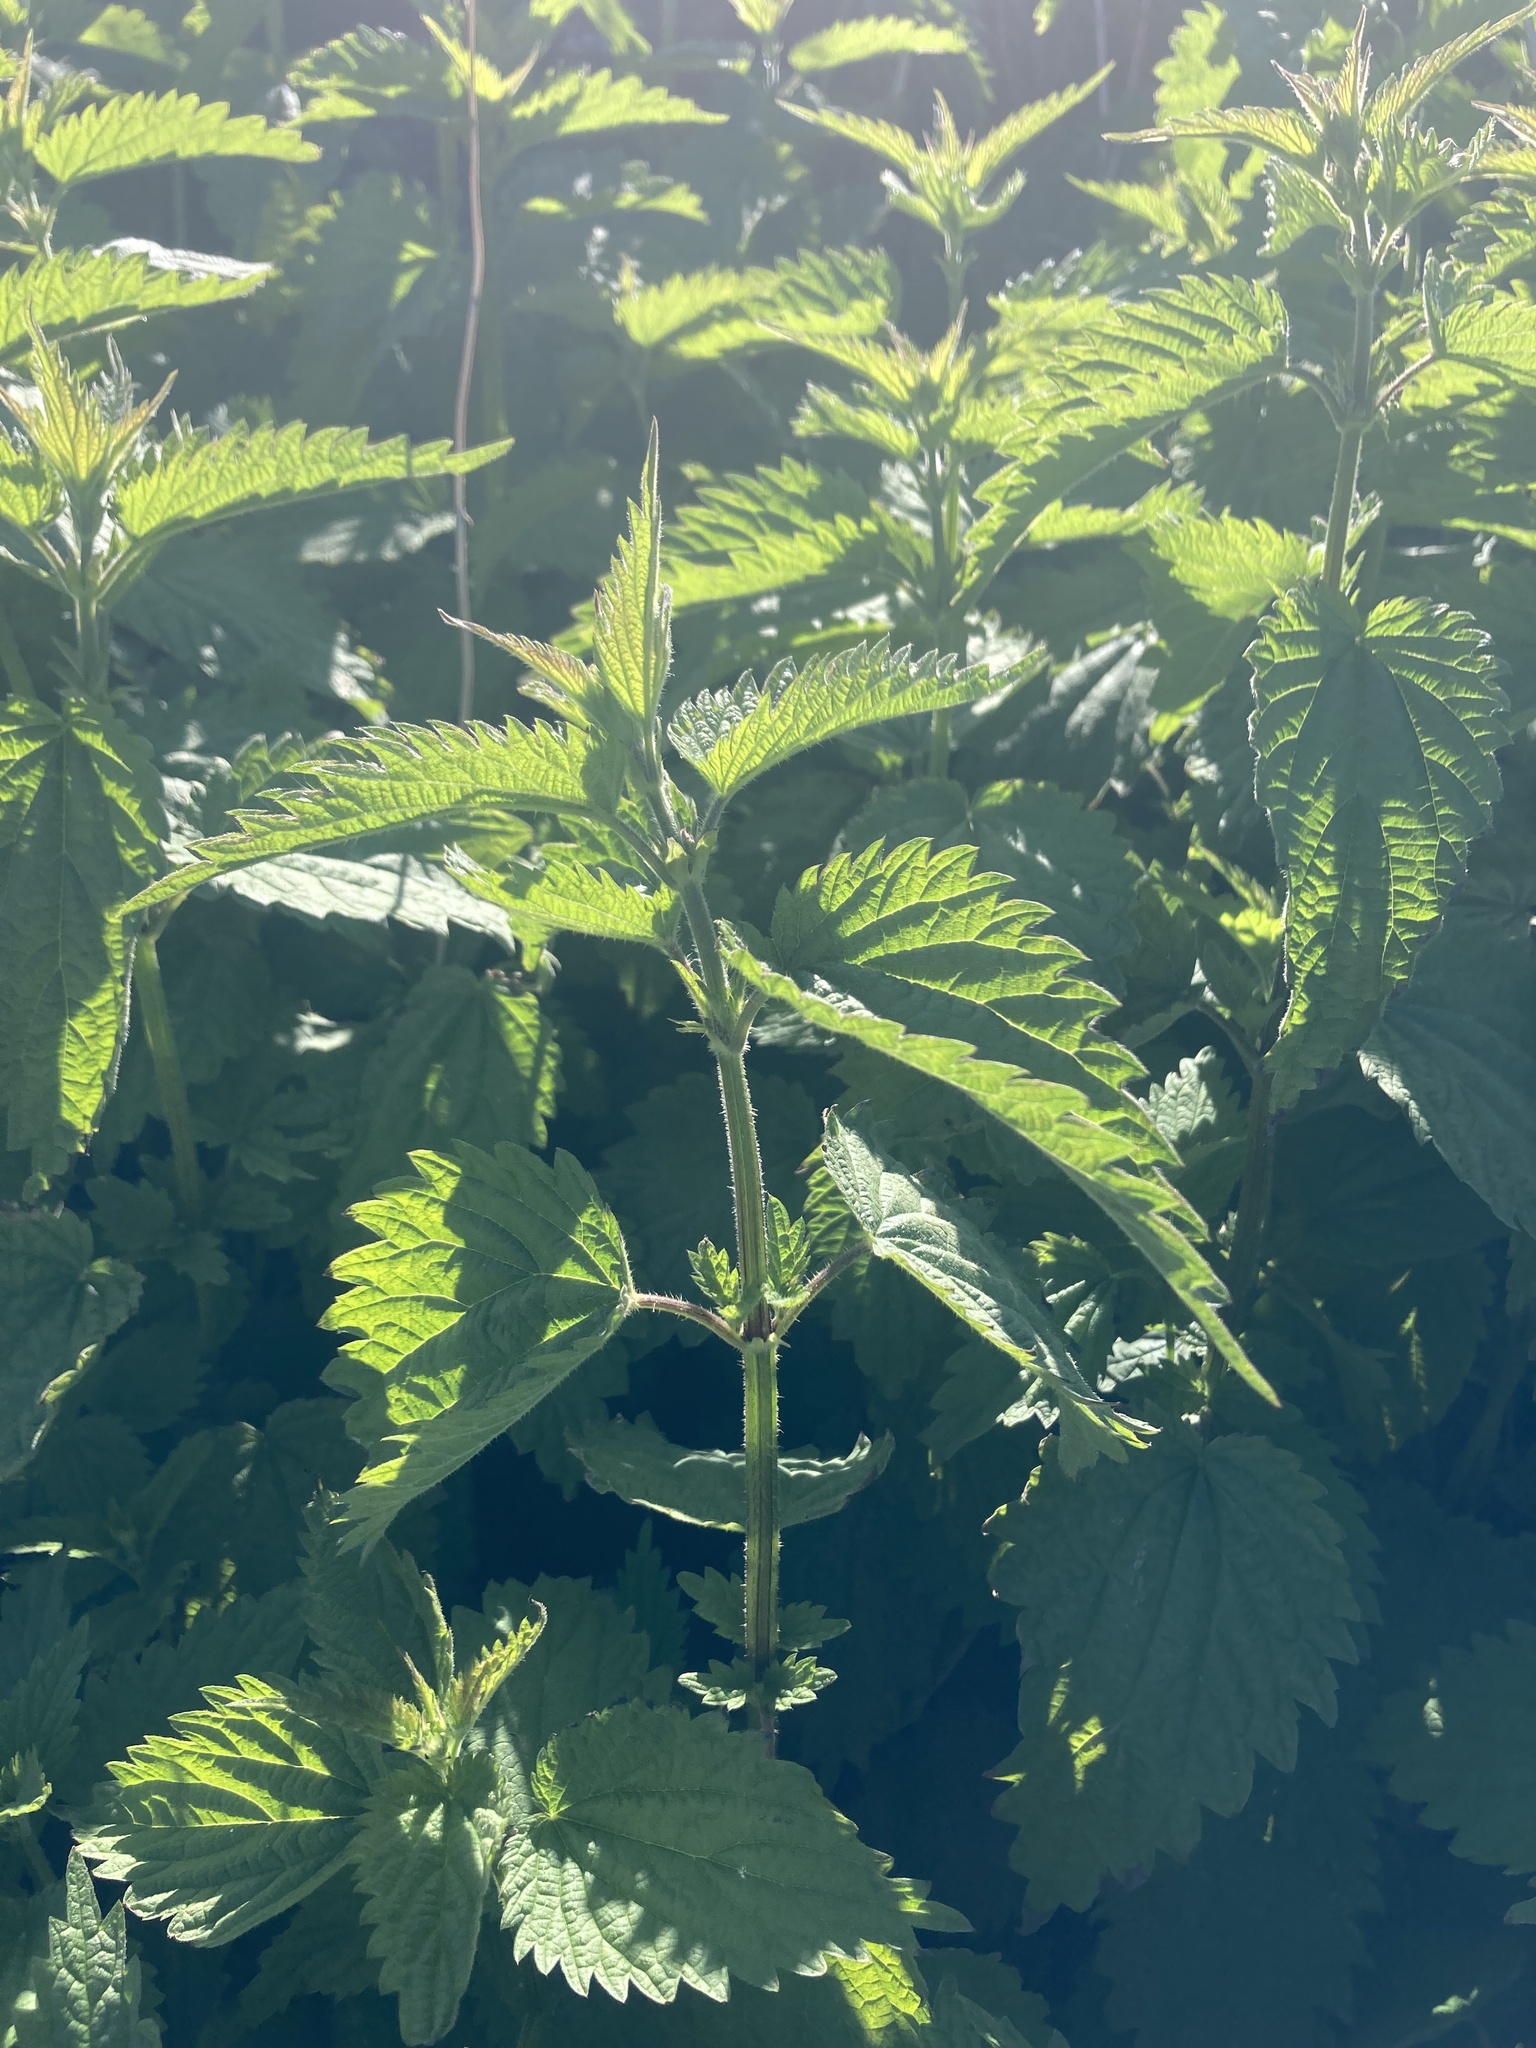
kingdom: Plantae
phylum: Tracheophyta
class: Magnoliopsida
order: Rosales
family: Urticaceae
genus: Urtica
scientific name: Urtica dioica
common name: Common nettle
